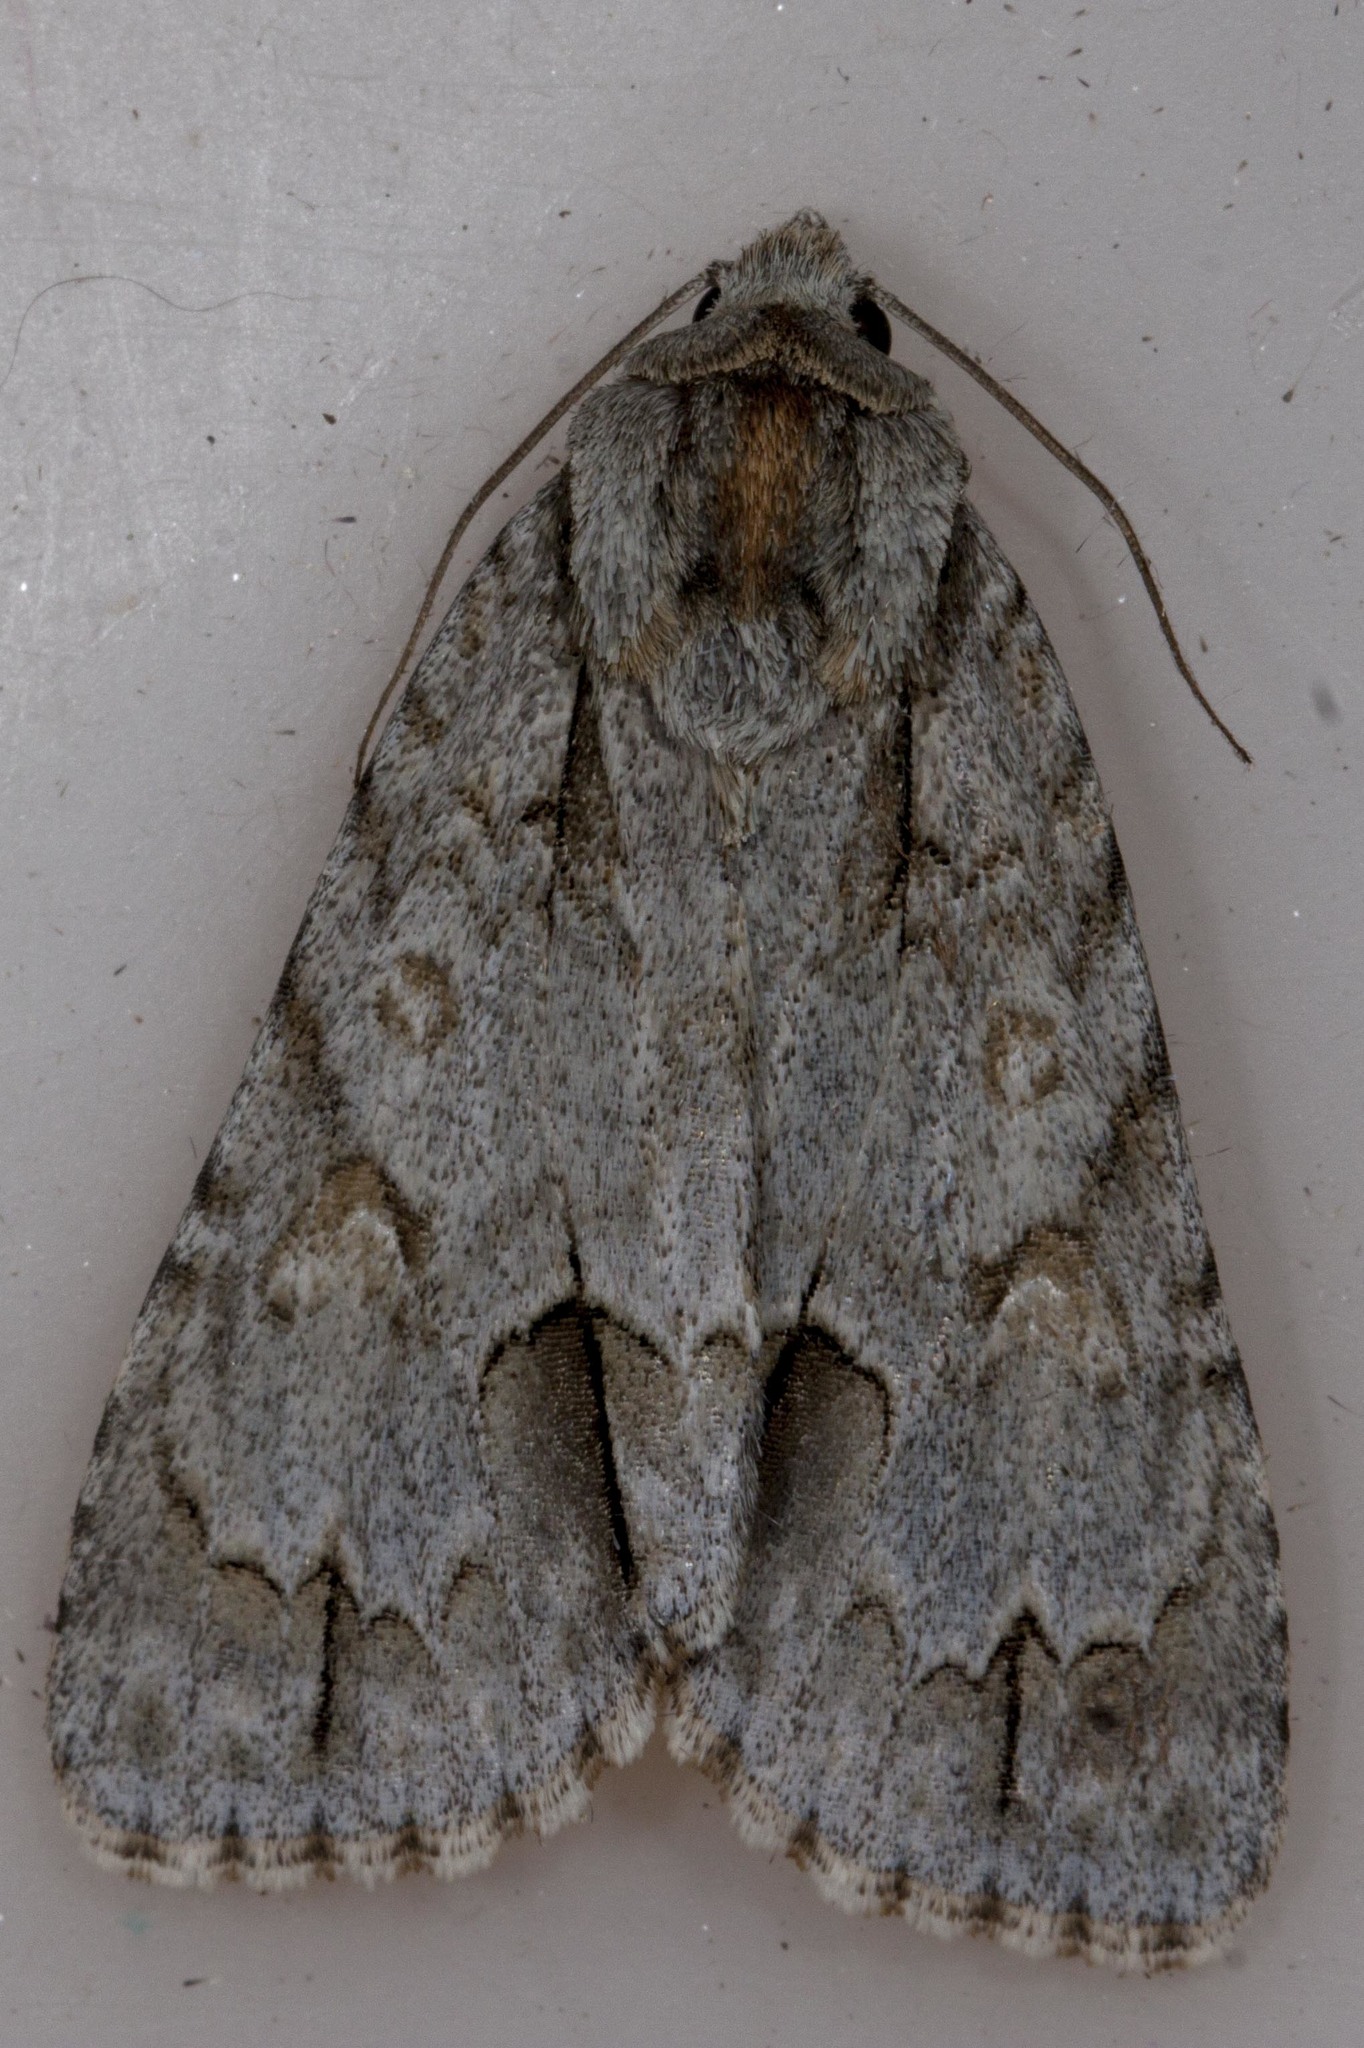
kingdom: Animalia
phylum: Arthropoda
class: Insecta
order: Lepidoptera
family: Noctuidae
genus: Acronicta
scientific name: Acronicta morula
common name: Ochre dagger
